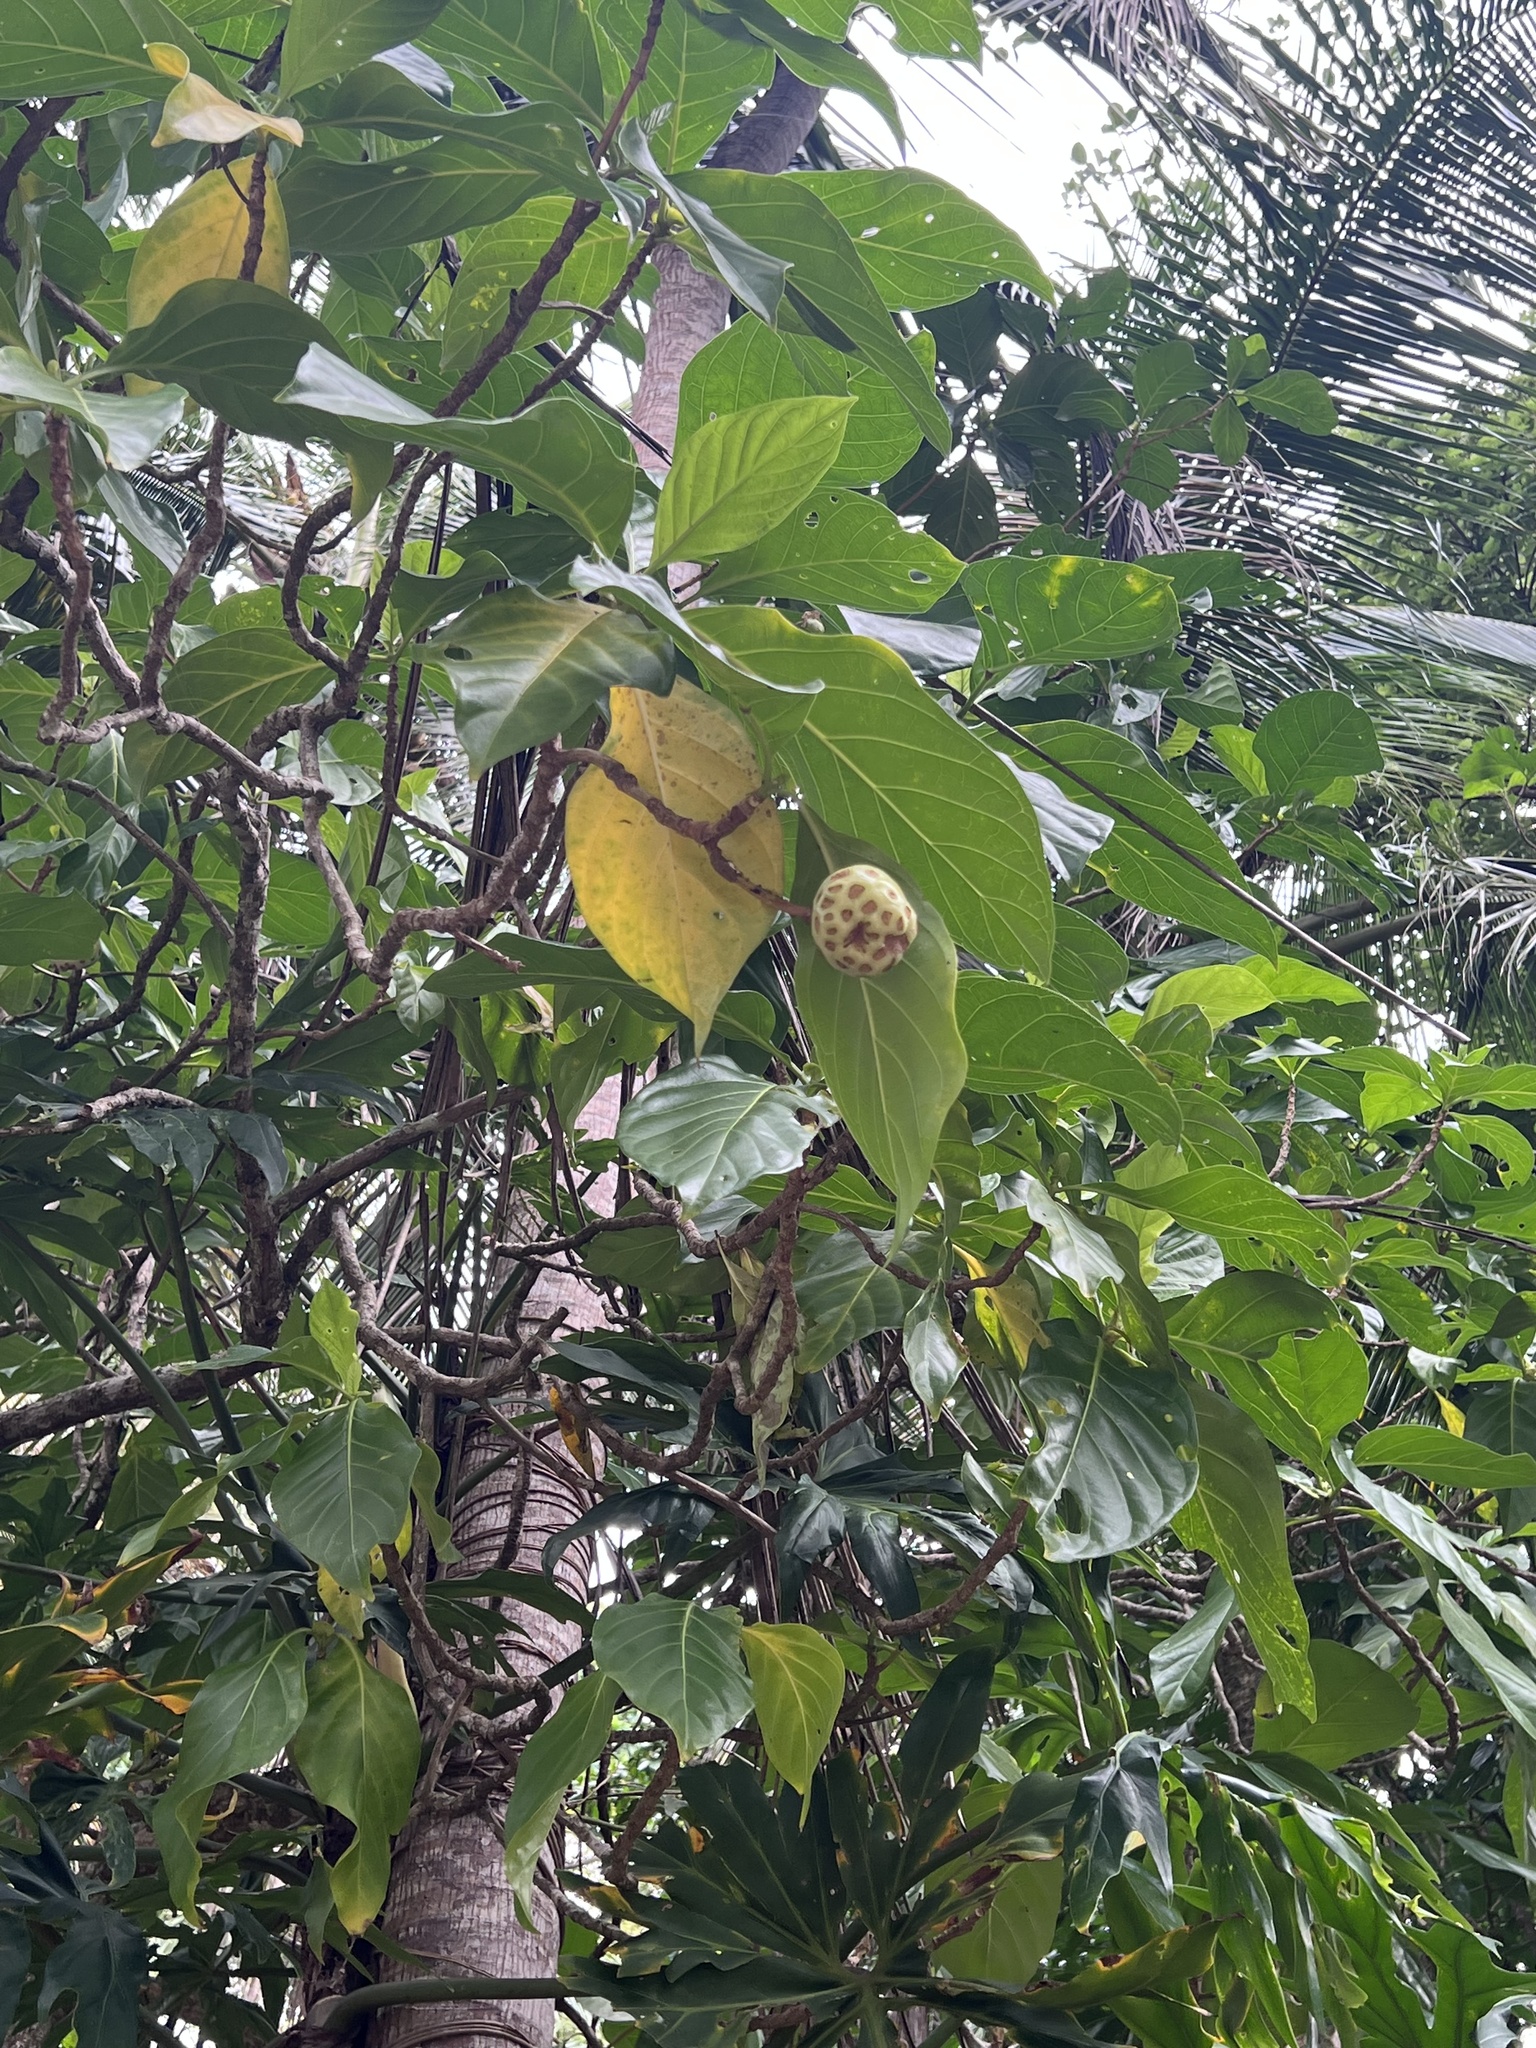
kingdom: Plantae
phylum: Tracheophyta
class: Magnoliopsida
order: Gentianales
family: Rubiaceae
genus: Morinda
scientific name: Morinda citrifolia
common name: Indian-mulberry
